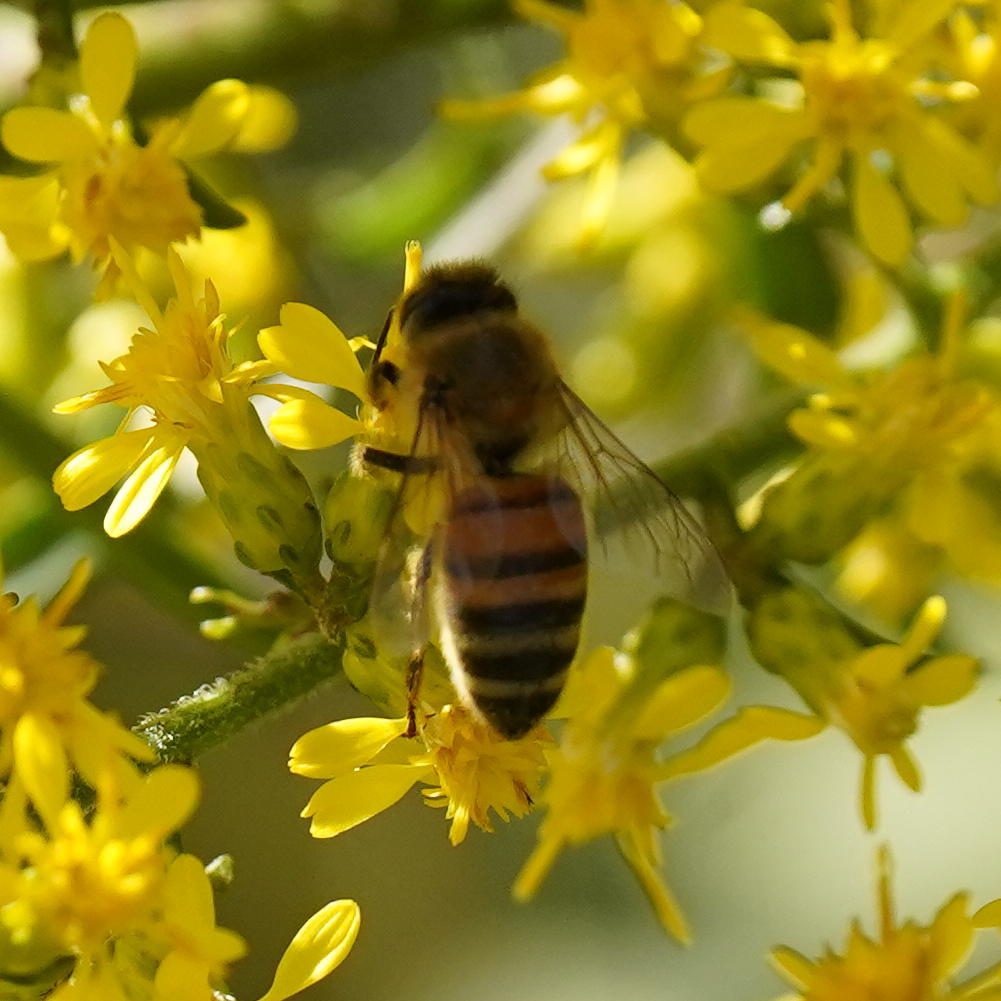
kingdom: Animalia
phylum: Arthropoda
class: Insecta
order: Hymenoptera
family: Apidae
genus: Apis
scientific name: Apis mellifera
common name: Honey bee
